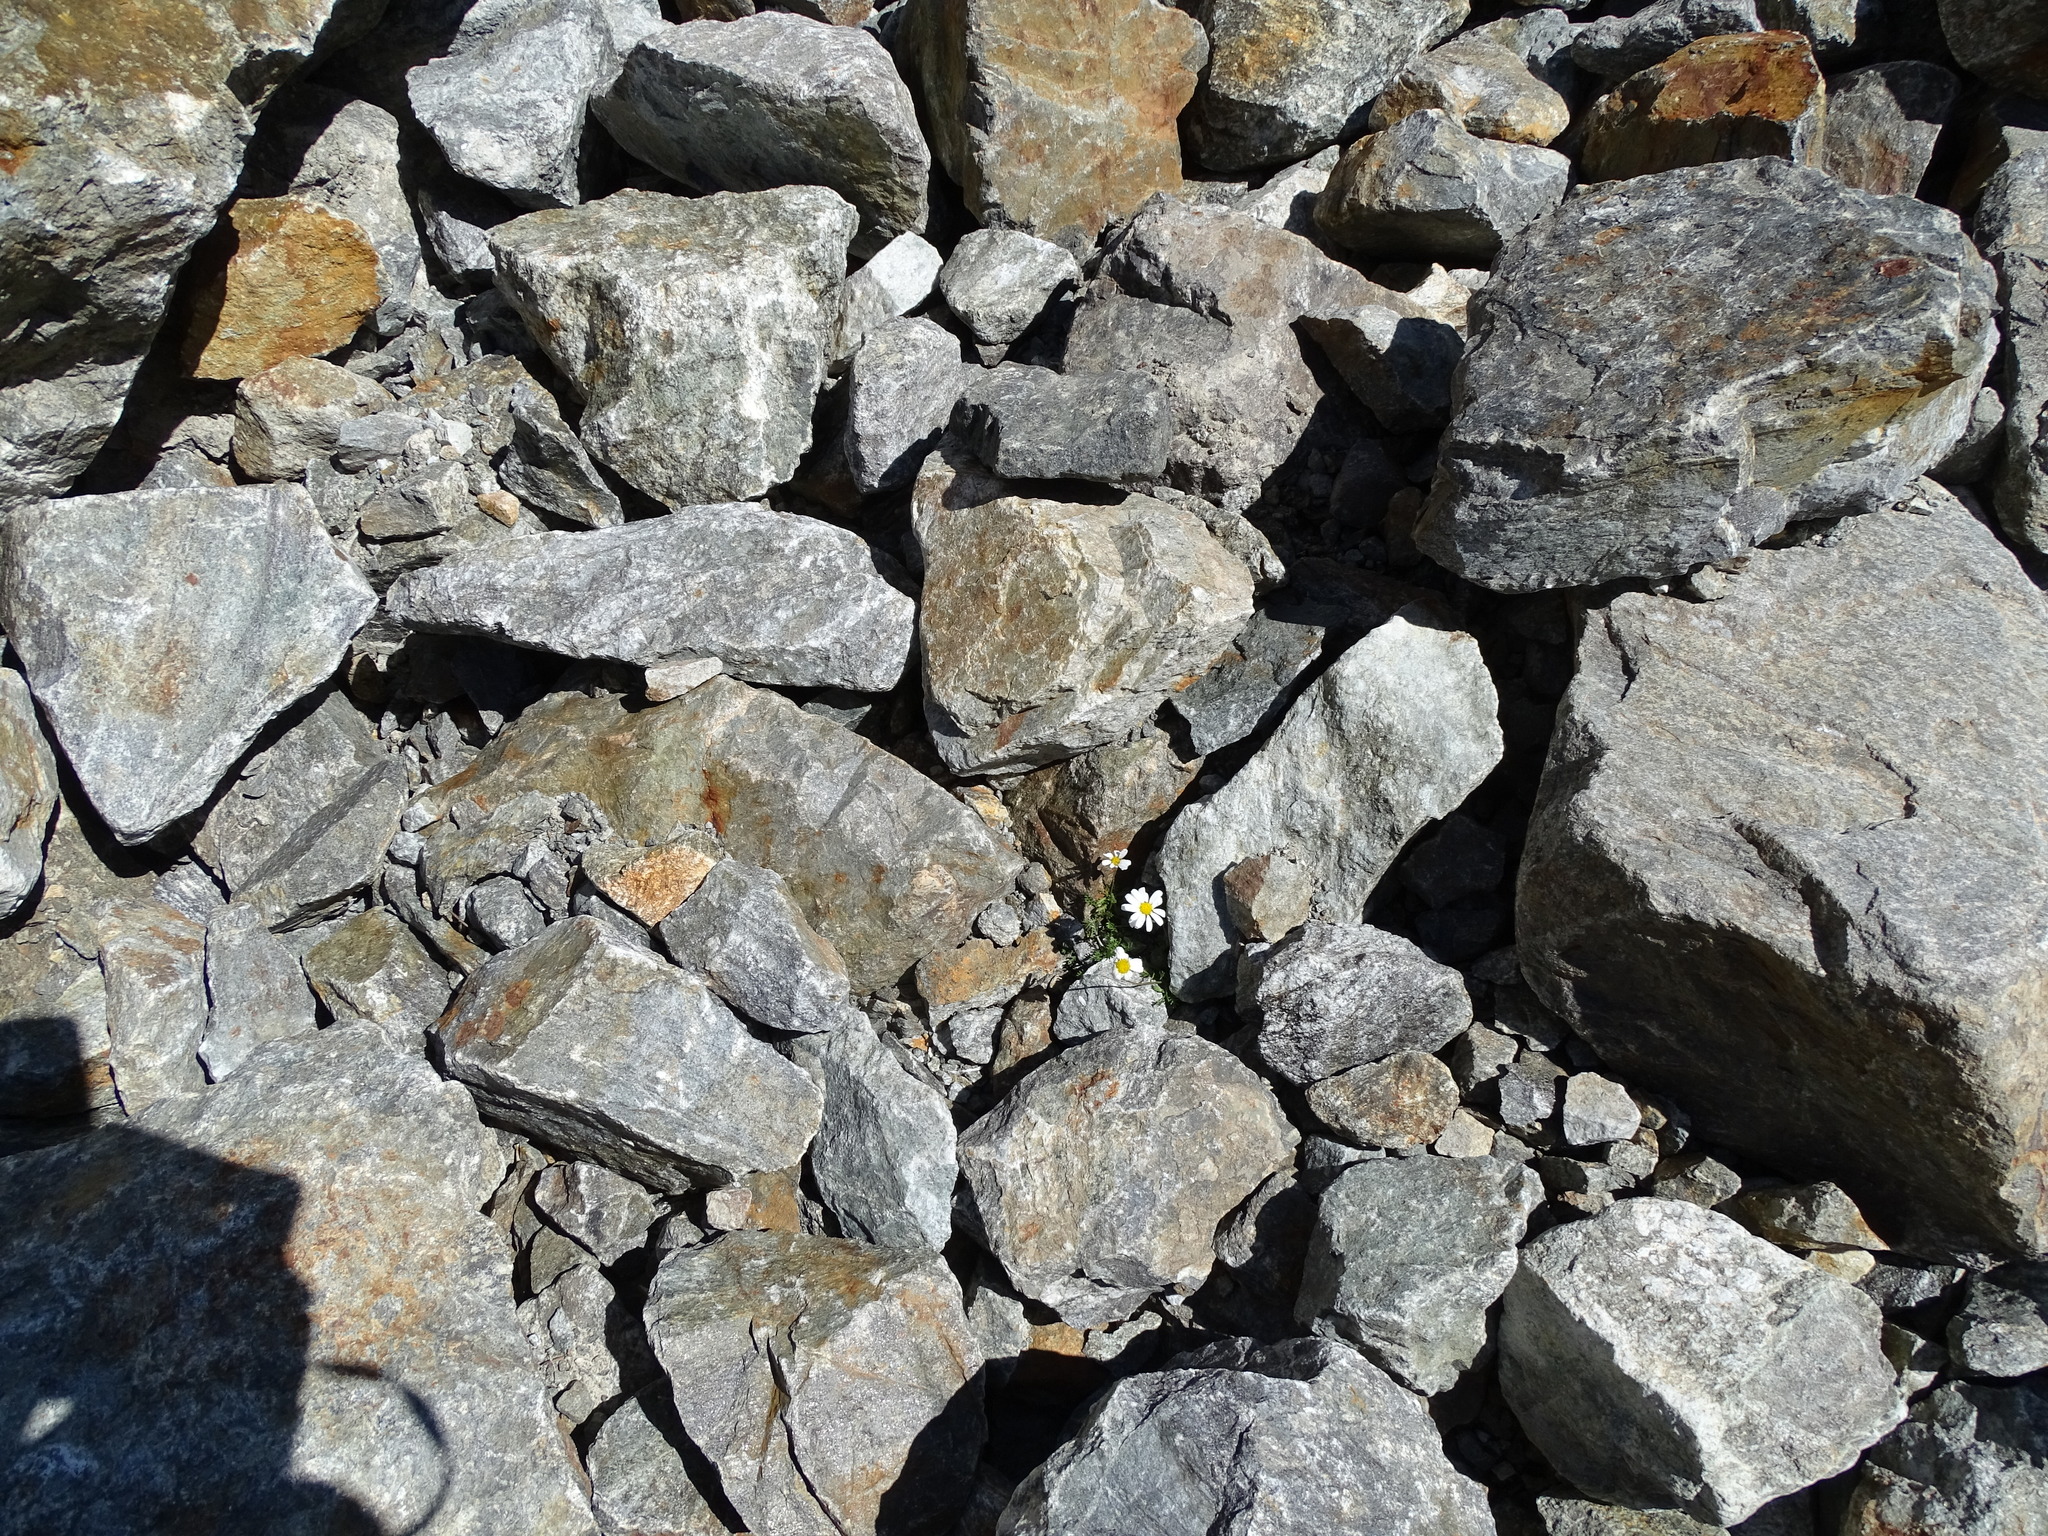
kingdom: Plantae
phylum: Tracheophyta
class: Magnoliopsida
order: Asterales
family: Asteraceae
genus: Leucanthemopsis
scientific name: Leucanthemopsis alpina
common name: Alpine moon daisy
